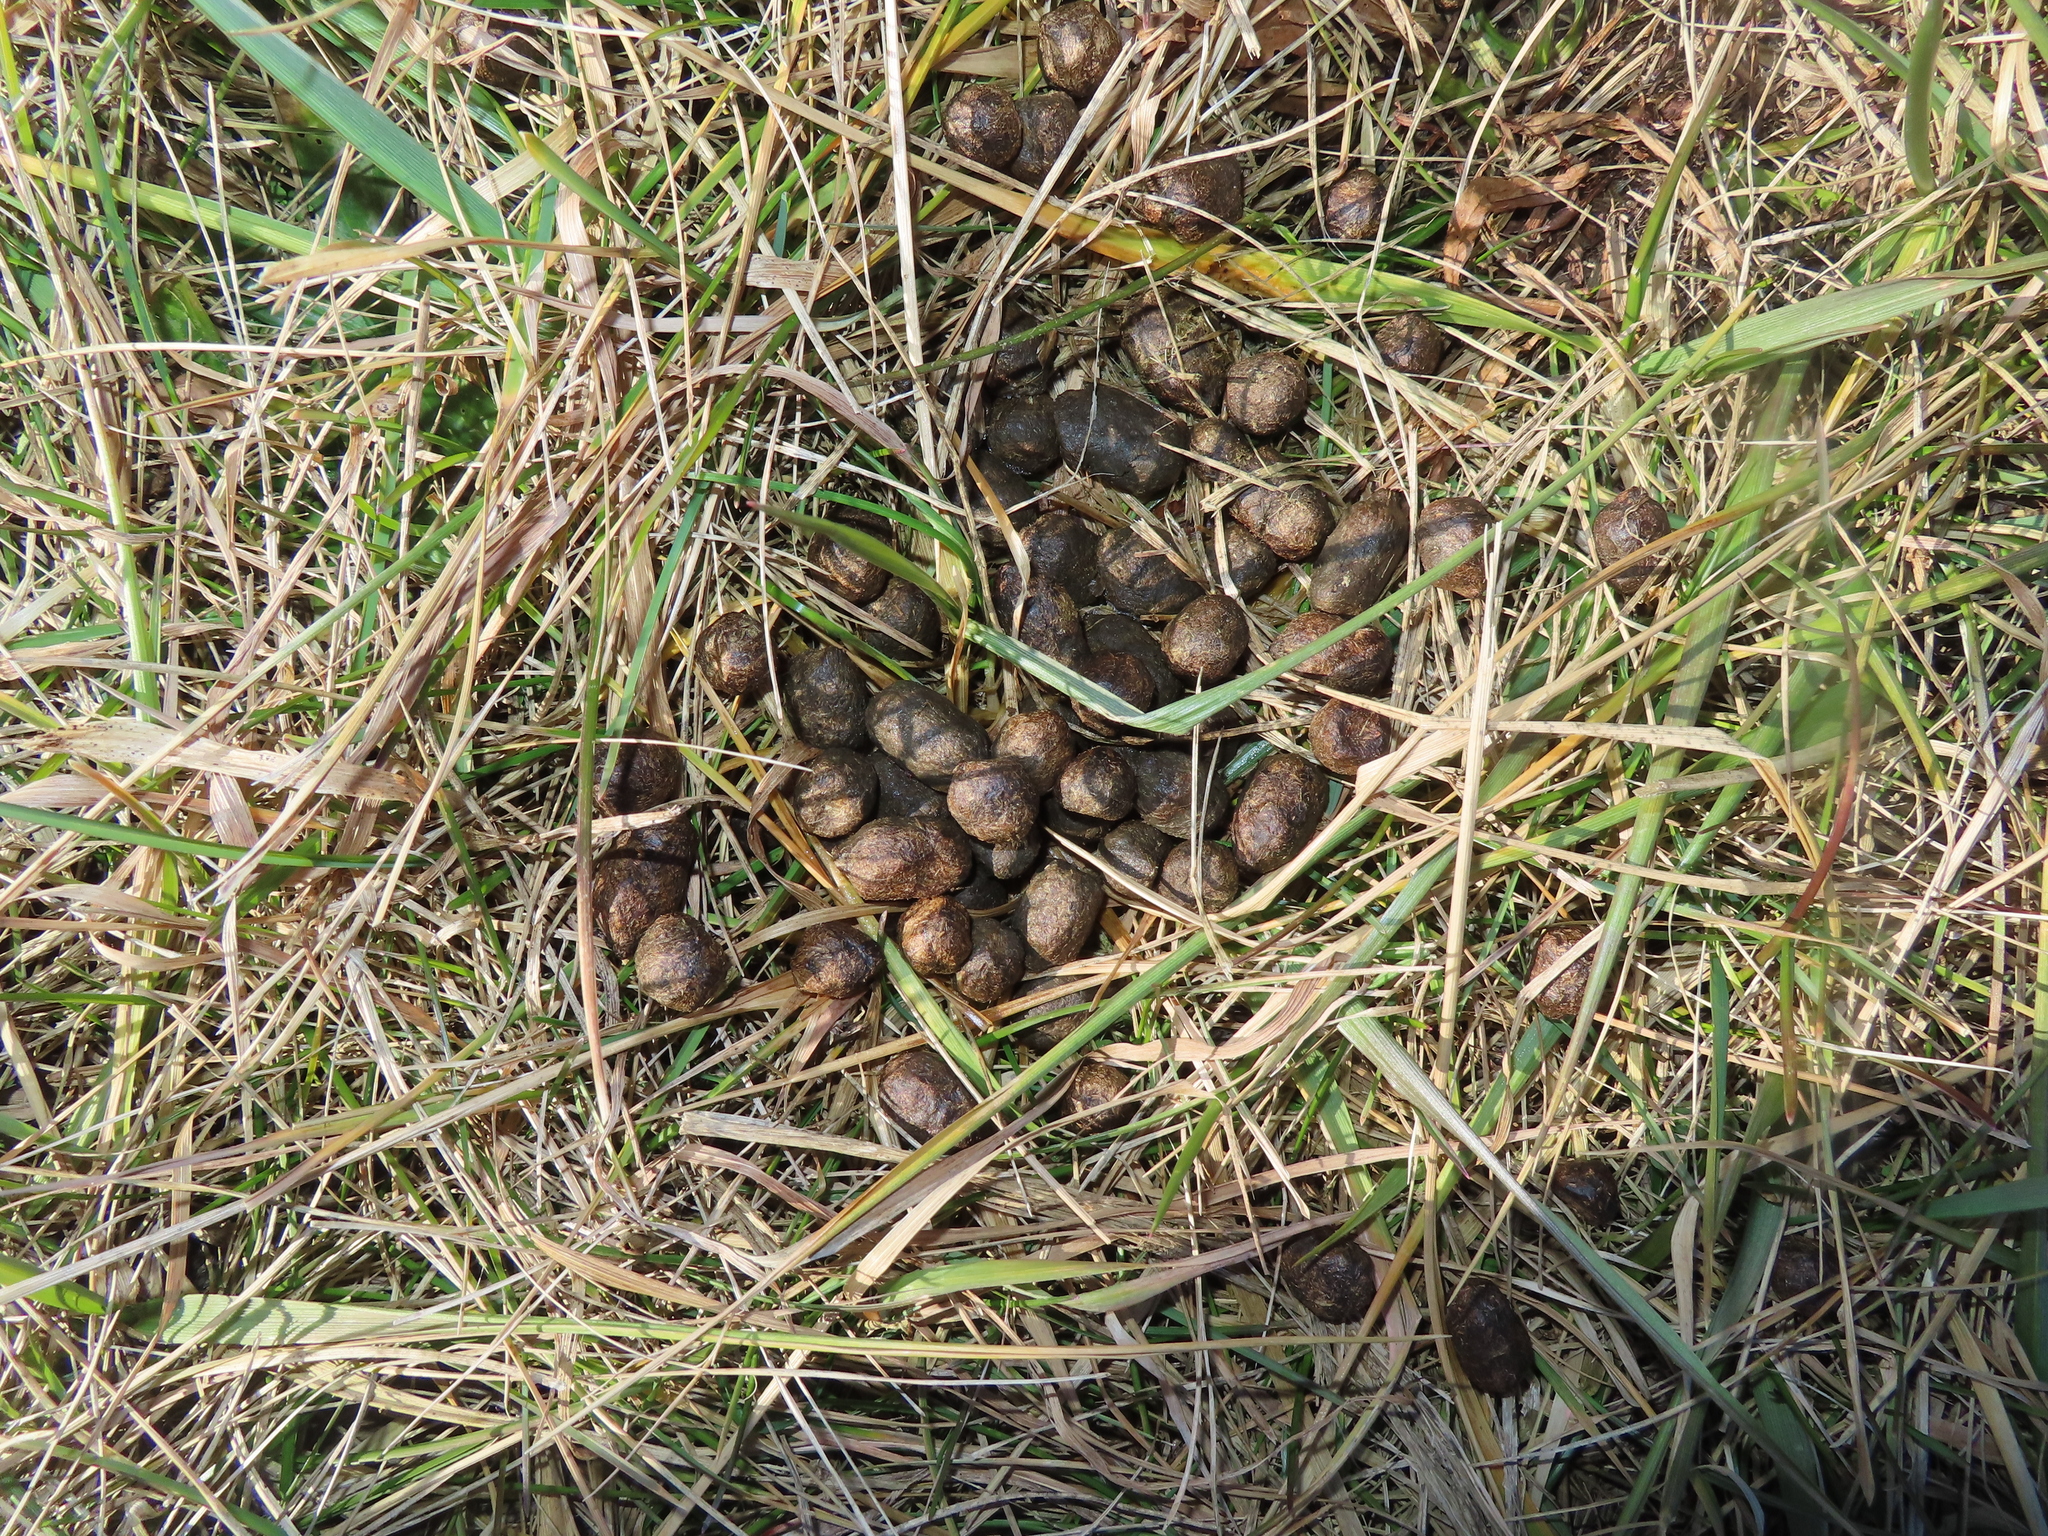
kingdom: Animalia
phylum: Chordata
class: Mammalia
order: Artiodactyla
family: Cervidae
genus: Odocoileus
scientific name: Odocoileus virginianus
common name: White-tailed deer
